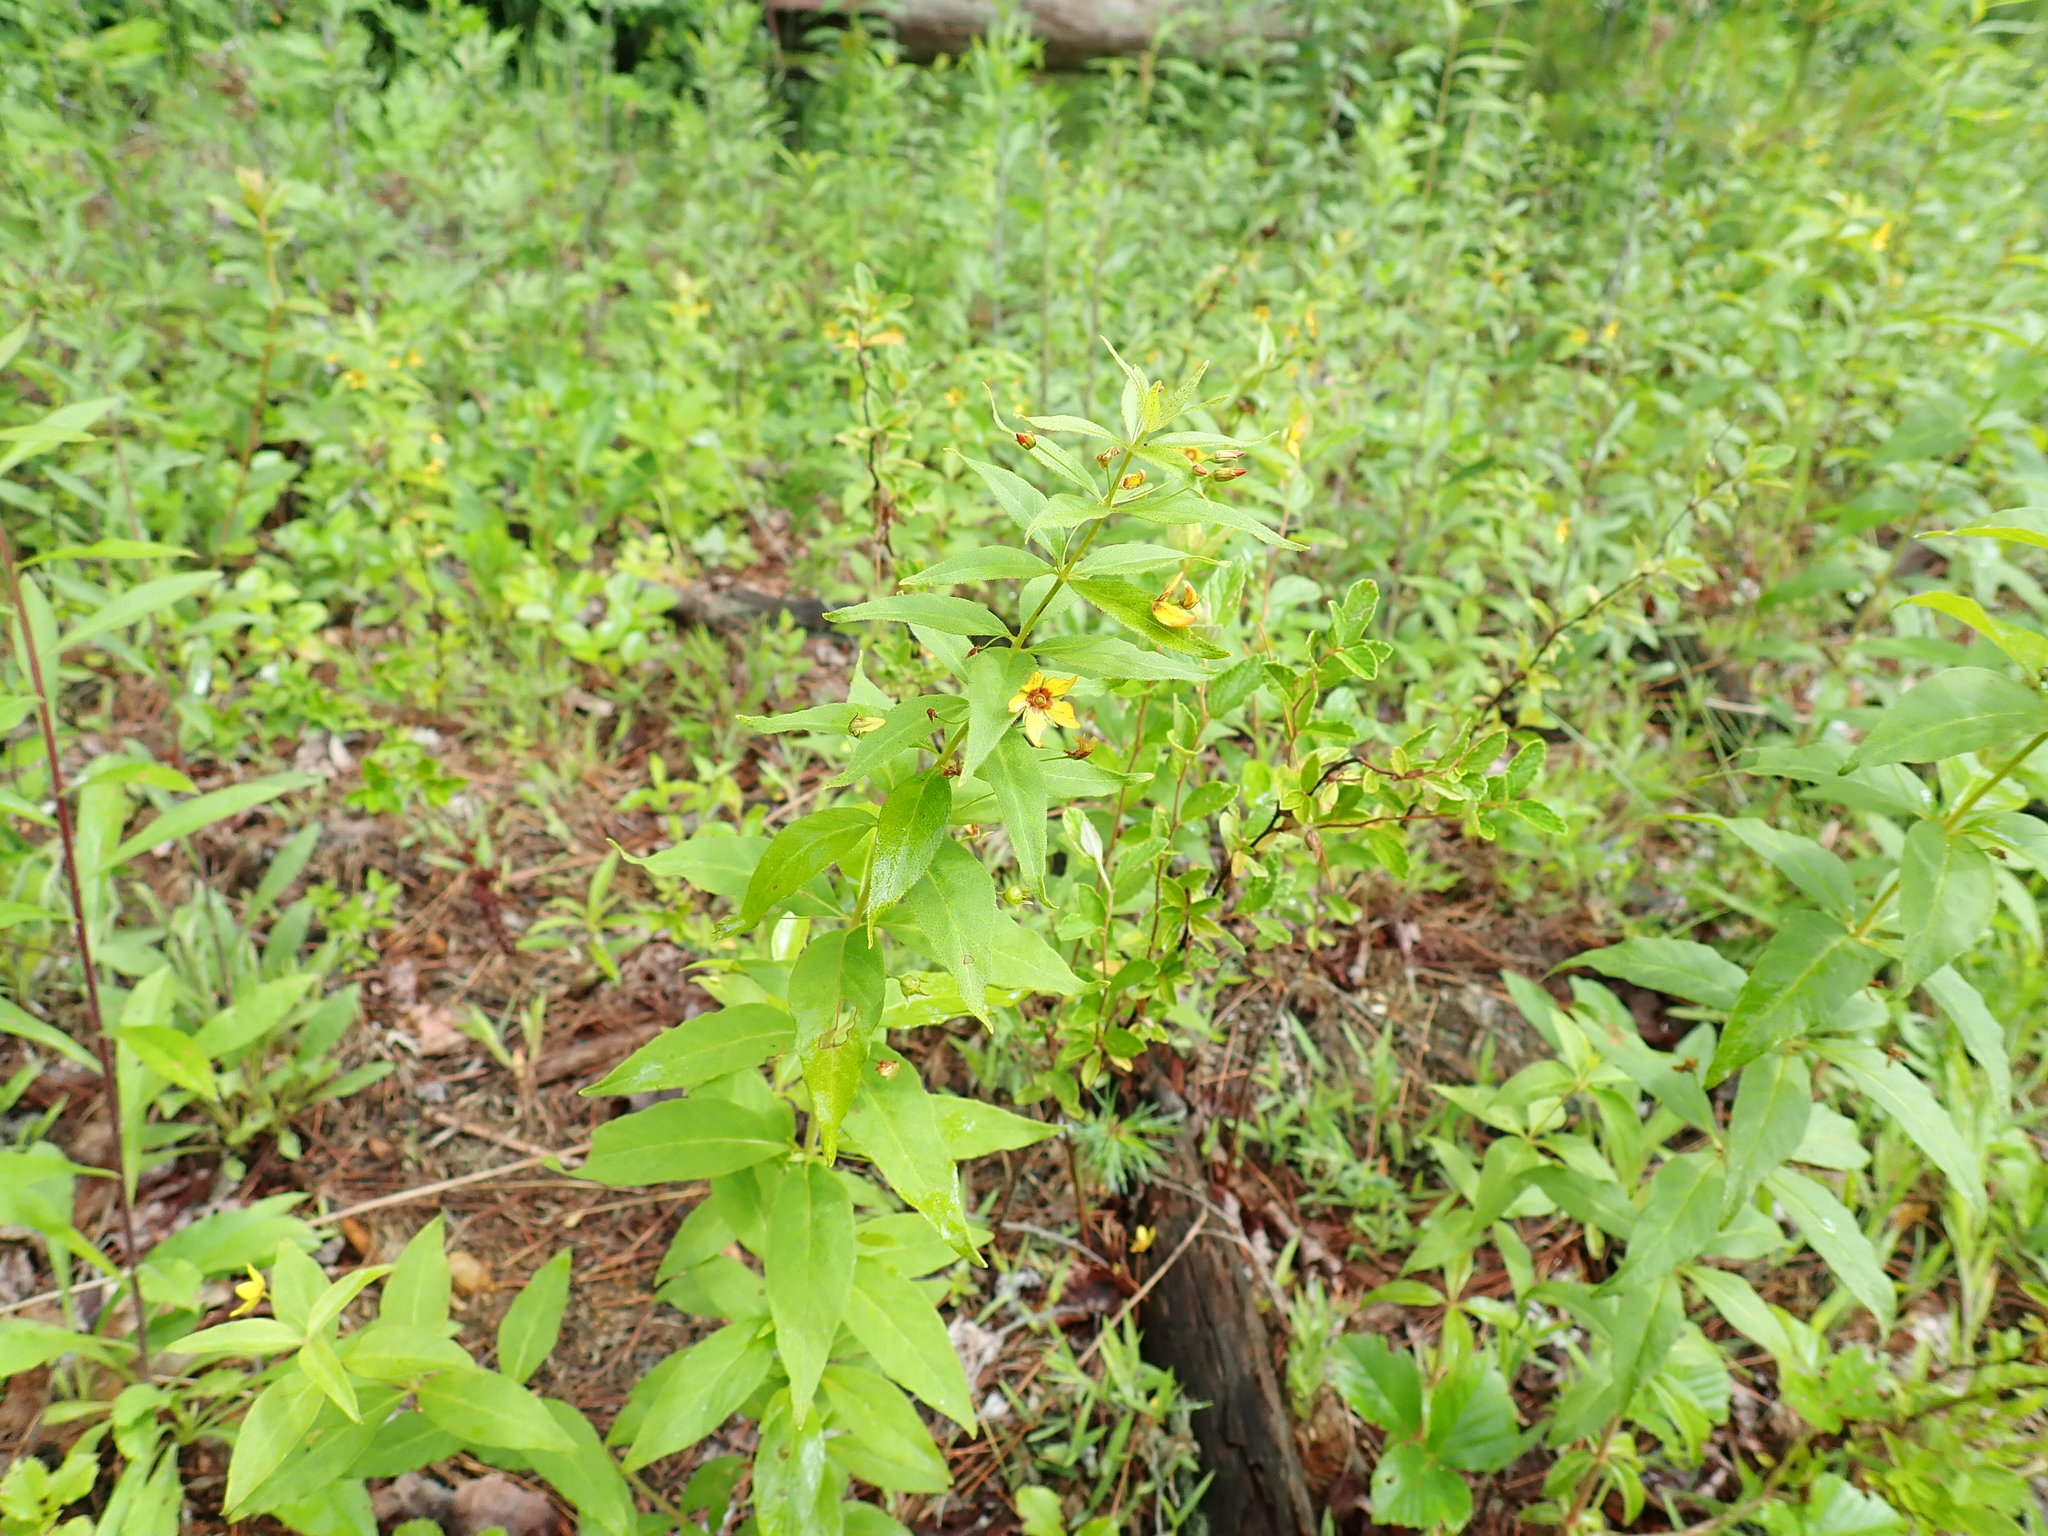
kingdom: Plantae
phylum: Tracheophyta
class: Magnoliopsida
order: Ericales
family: Primulaceae
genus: Lysimachia
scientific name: Lysimachia quadrifolia
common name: Whorled loosestrife
